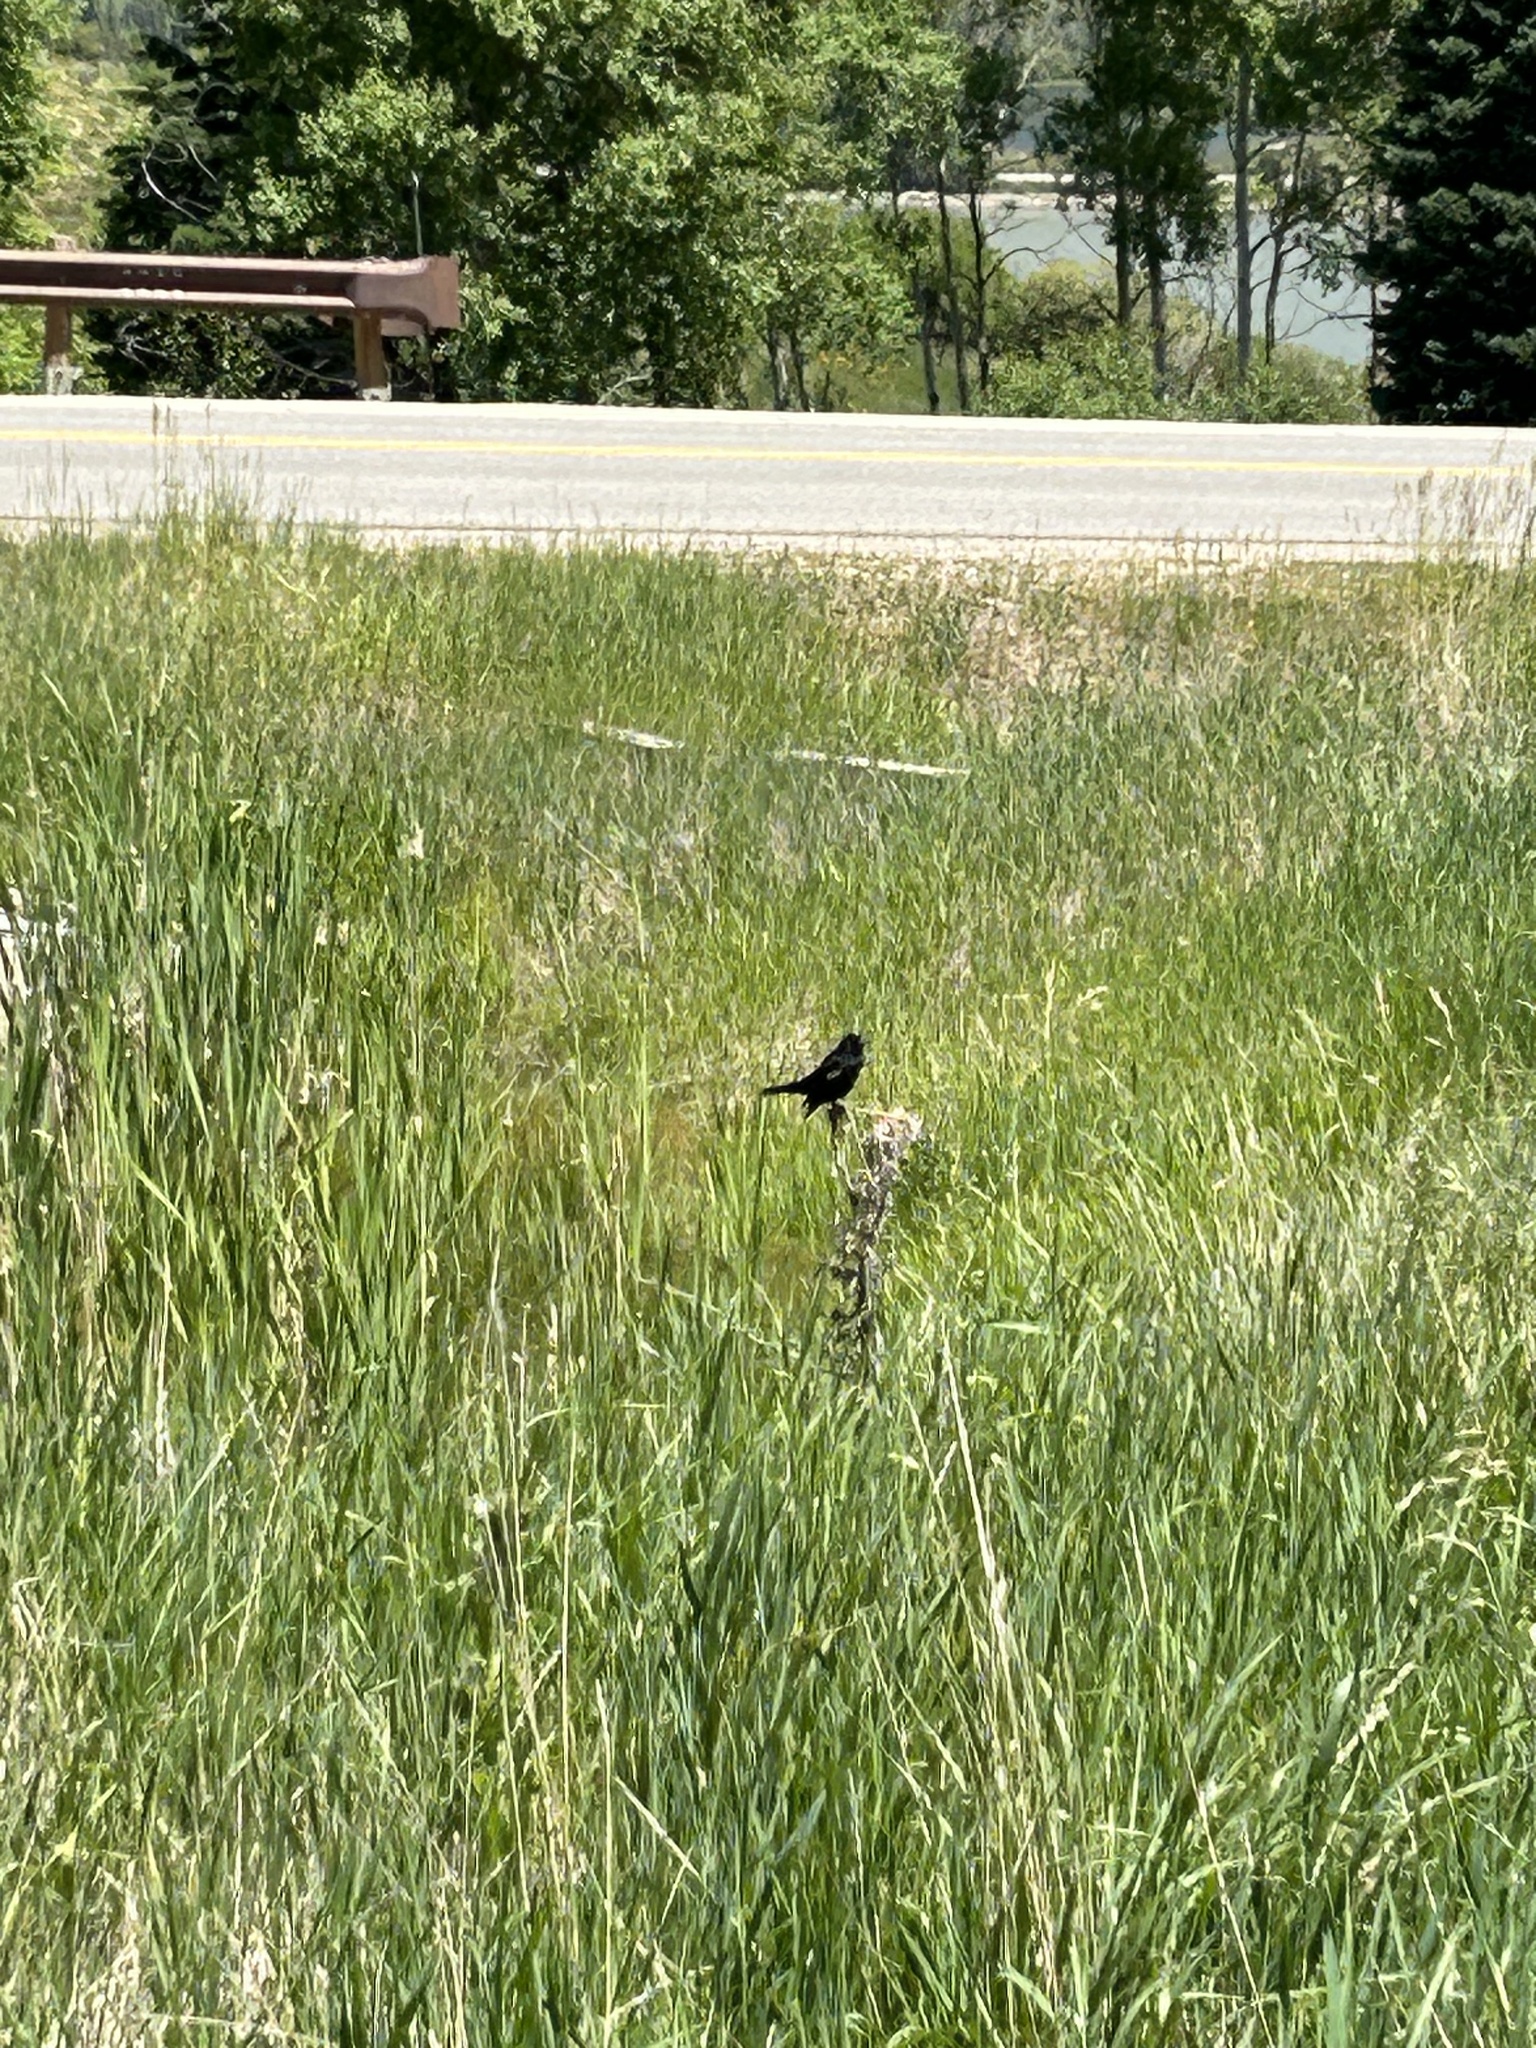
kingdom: Animalia
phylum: Chordata
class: Aves
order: Passeriformes
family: Icteridae
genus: Agelaius
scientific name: Agelaius phoeniceus
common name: Red-winged blackbird
